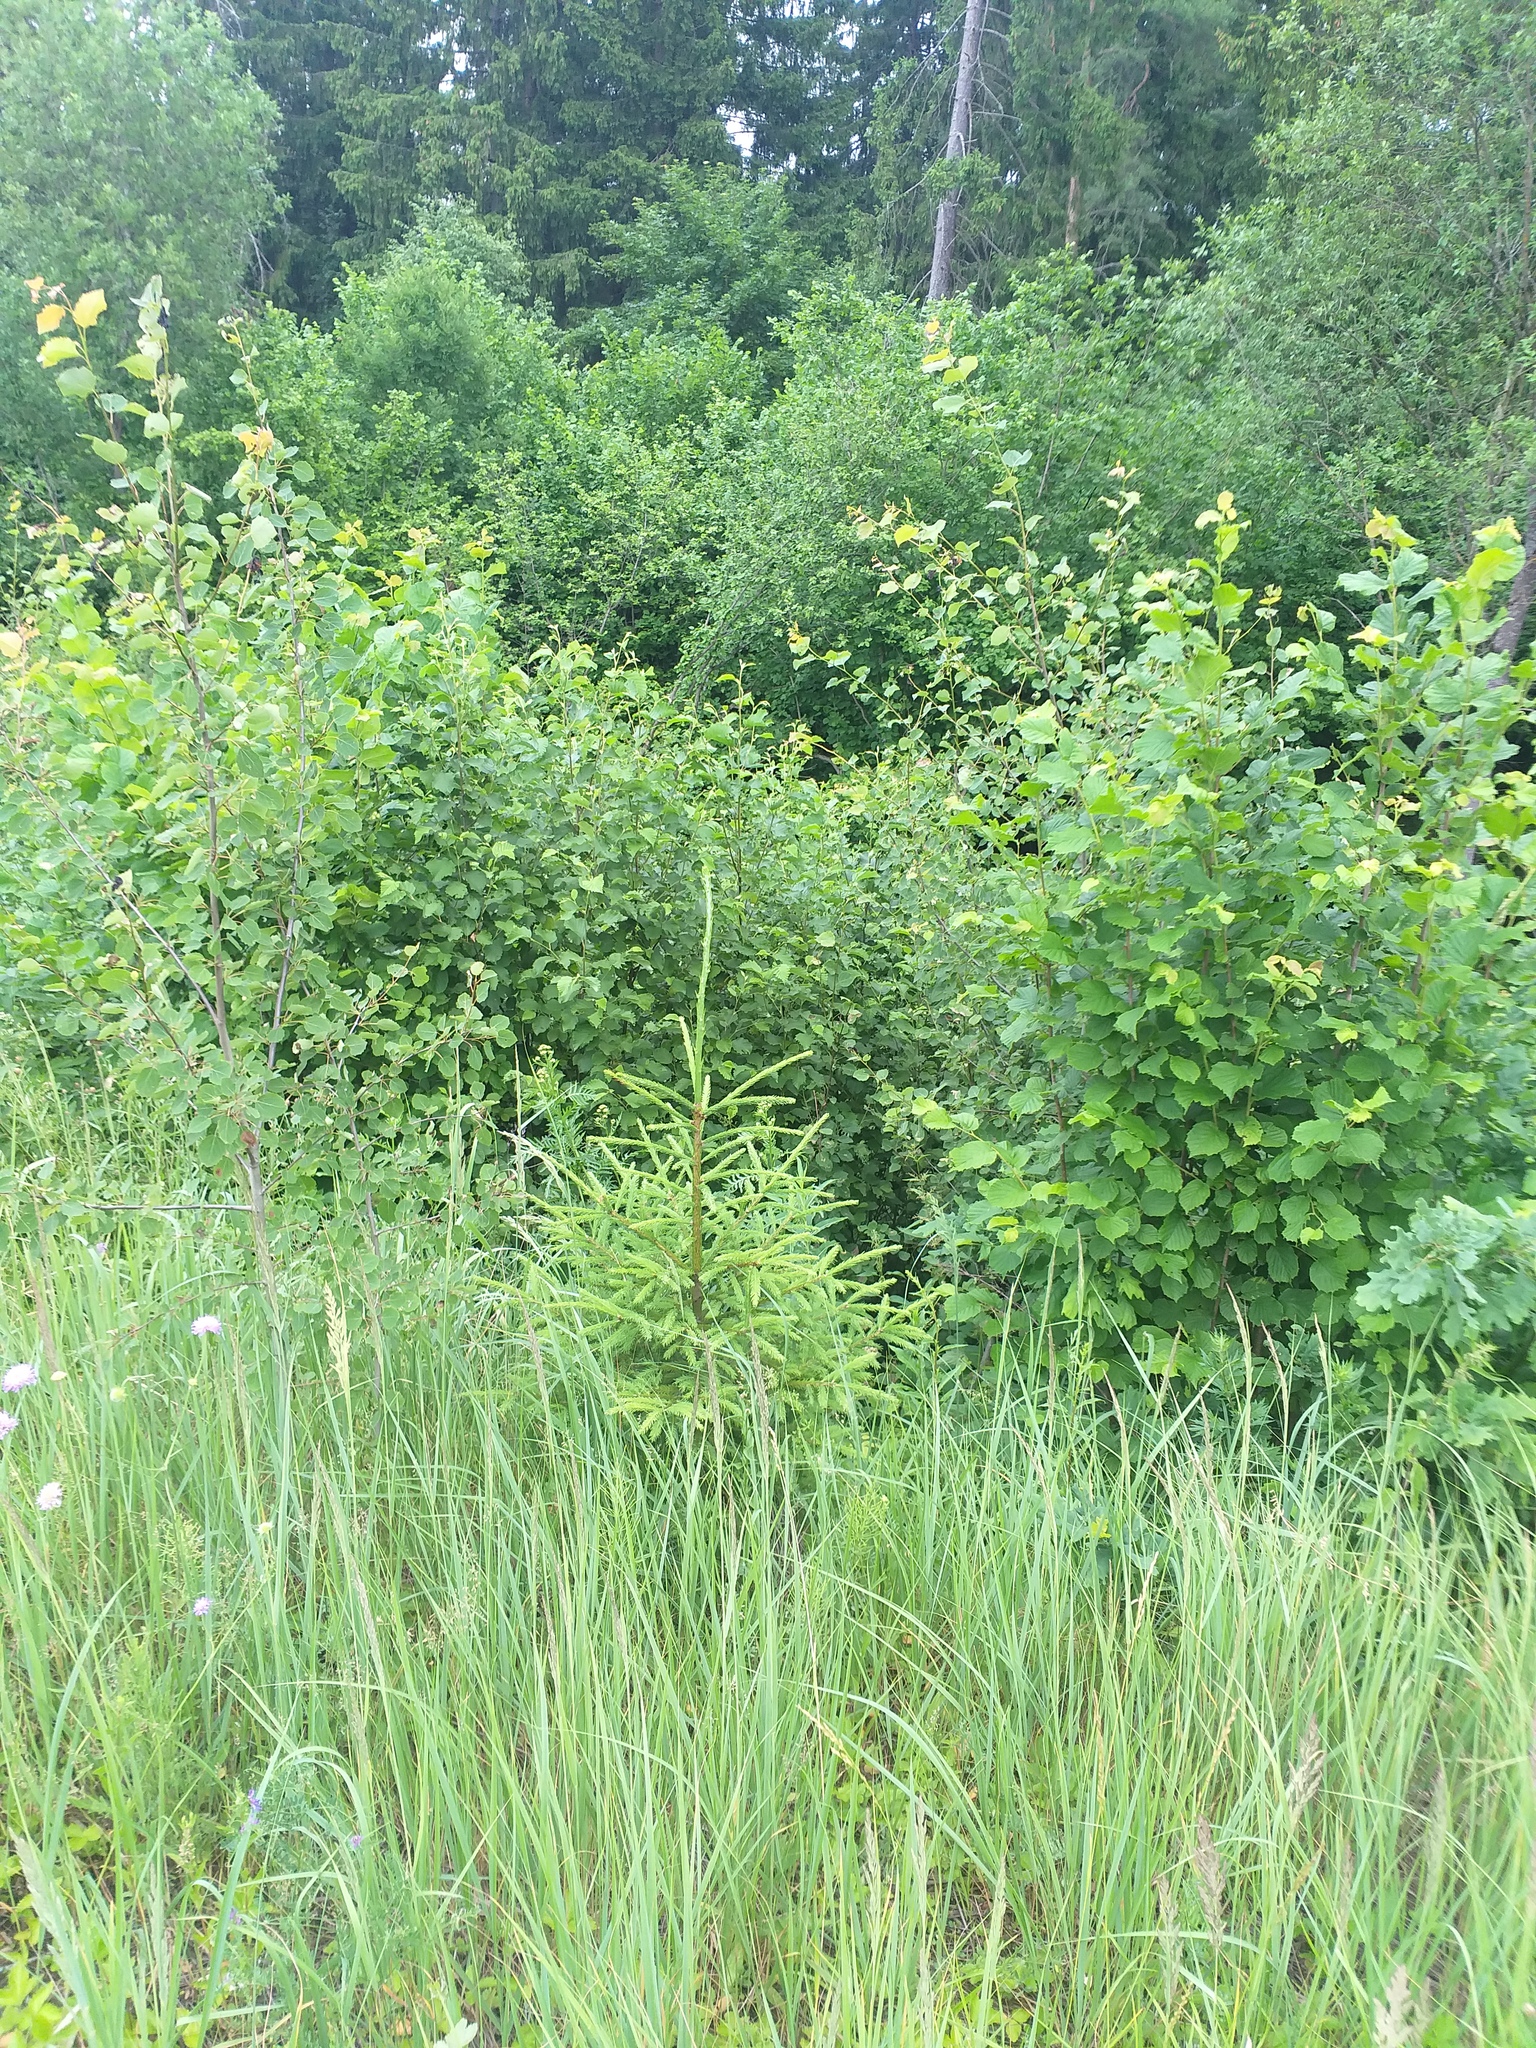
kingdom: Plantae
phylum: Tracheophyta
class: Pinopsida
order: Pinales
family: Pinaceae
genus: Picea
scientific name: Picea abies
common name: Norway spruce
